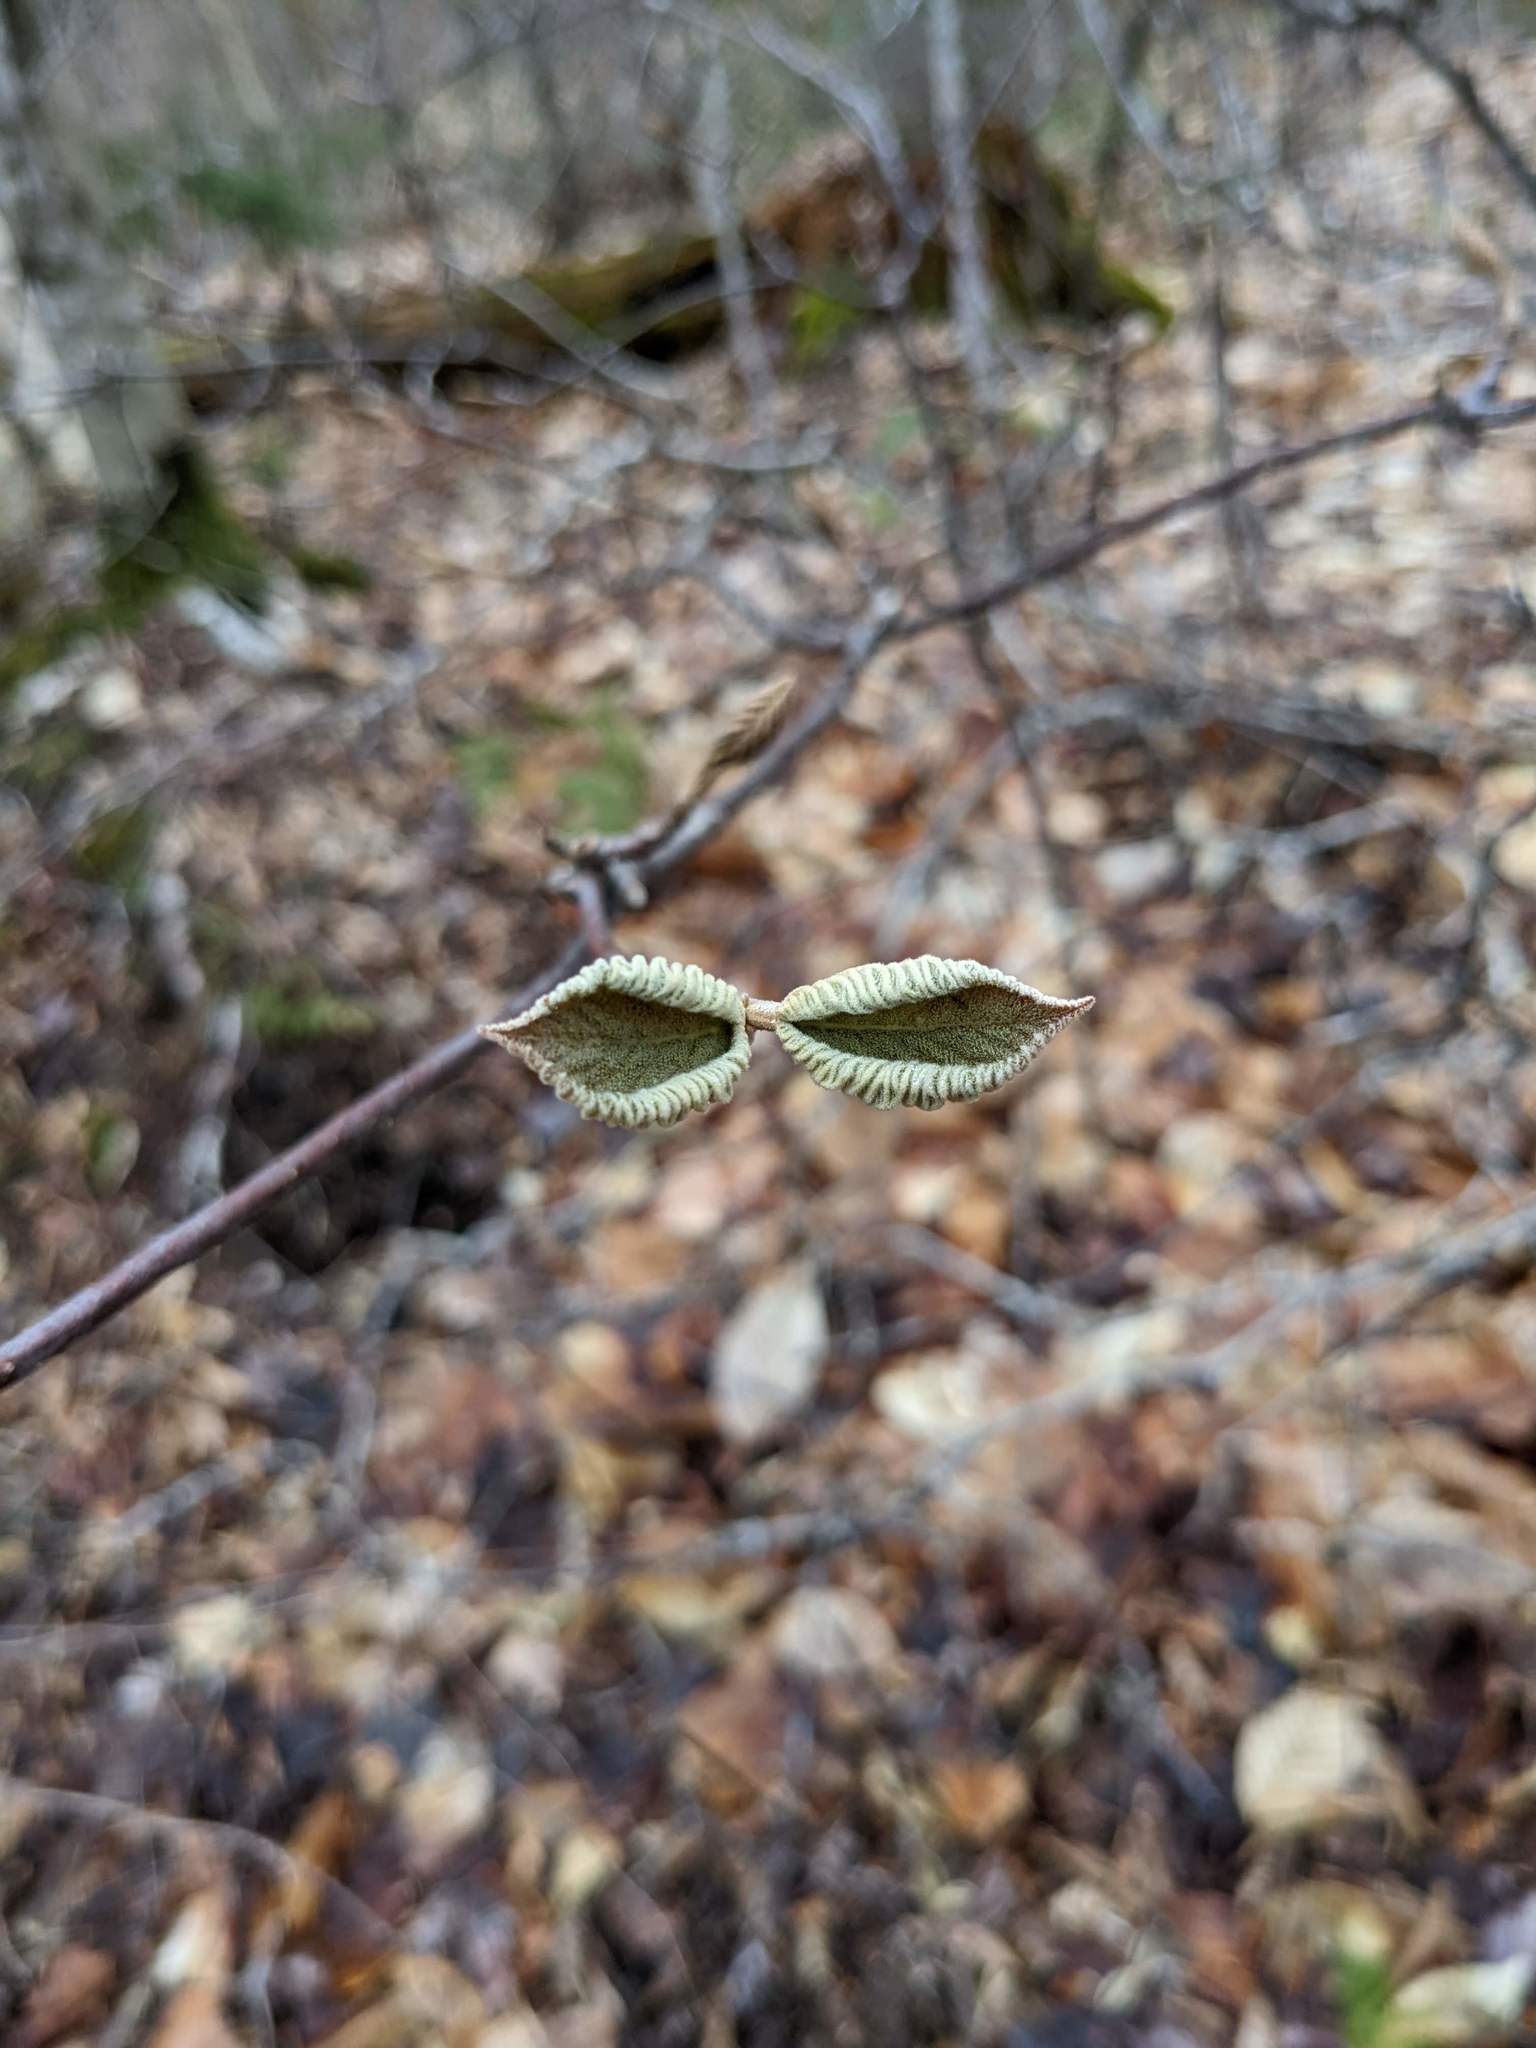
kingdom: Plantae
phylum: Tracheophyta
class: Magnoliopsida
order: Dipsacales
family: Viburnaceae
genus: Viburnum
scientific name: Viburnum lantanoides
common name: Hobblebush
